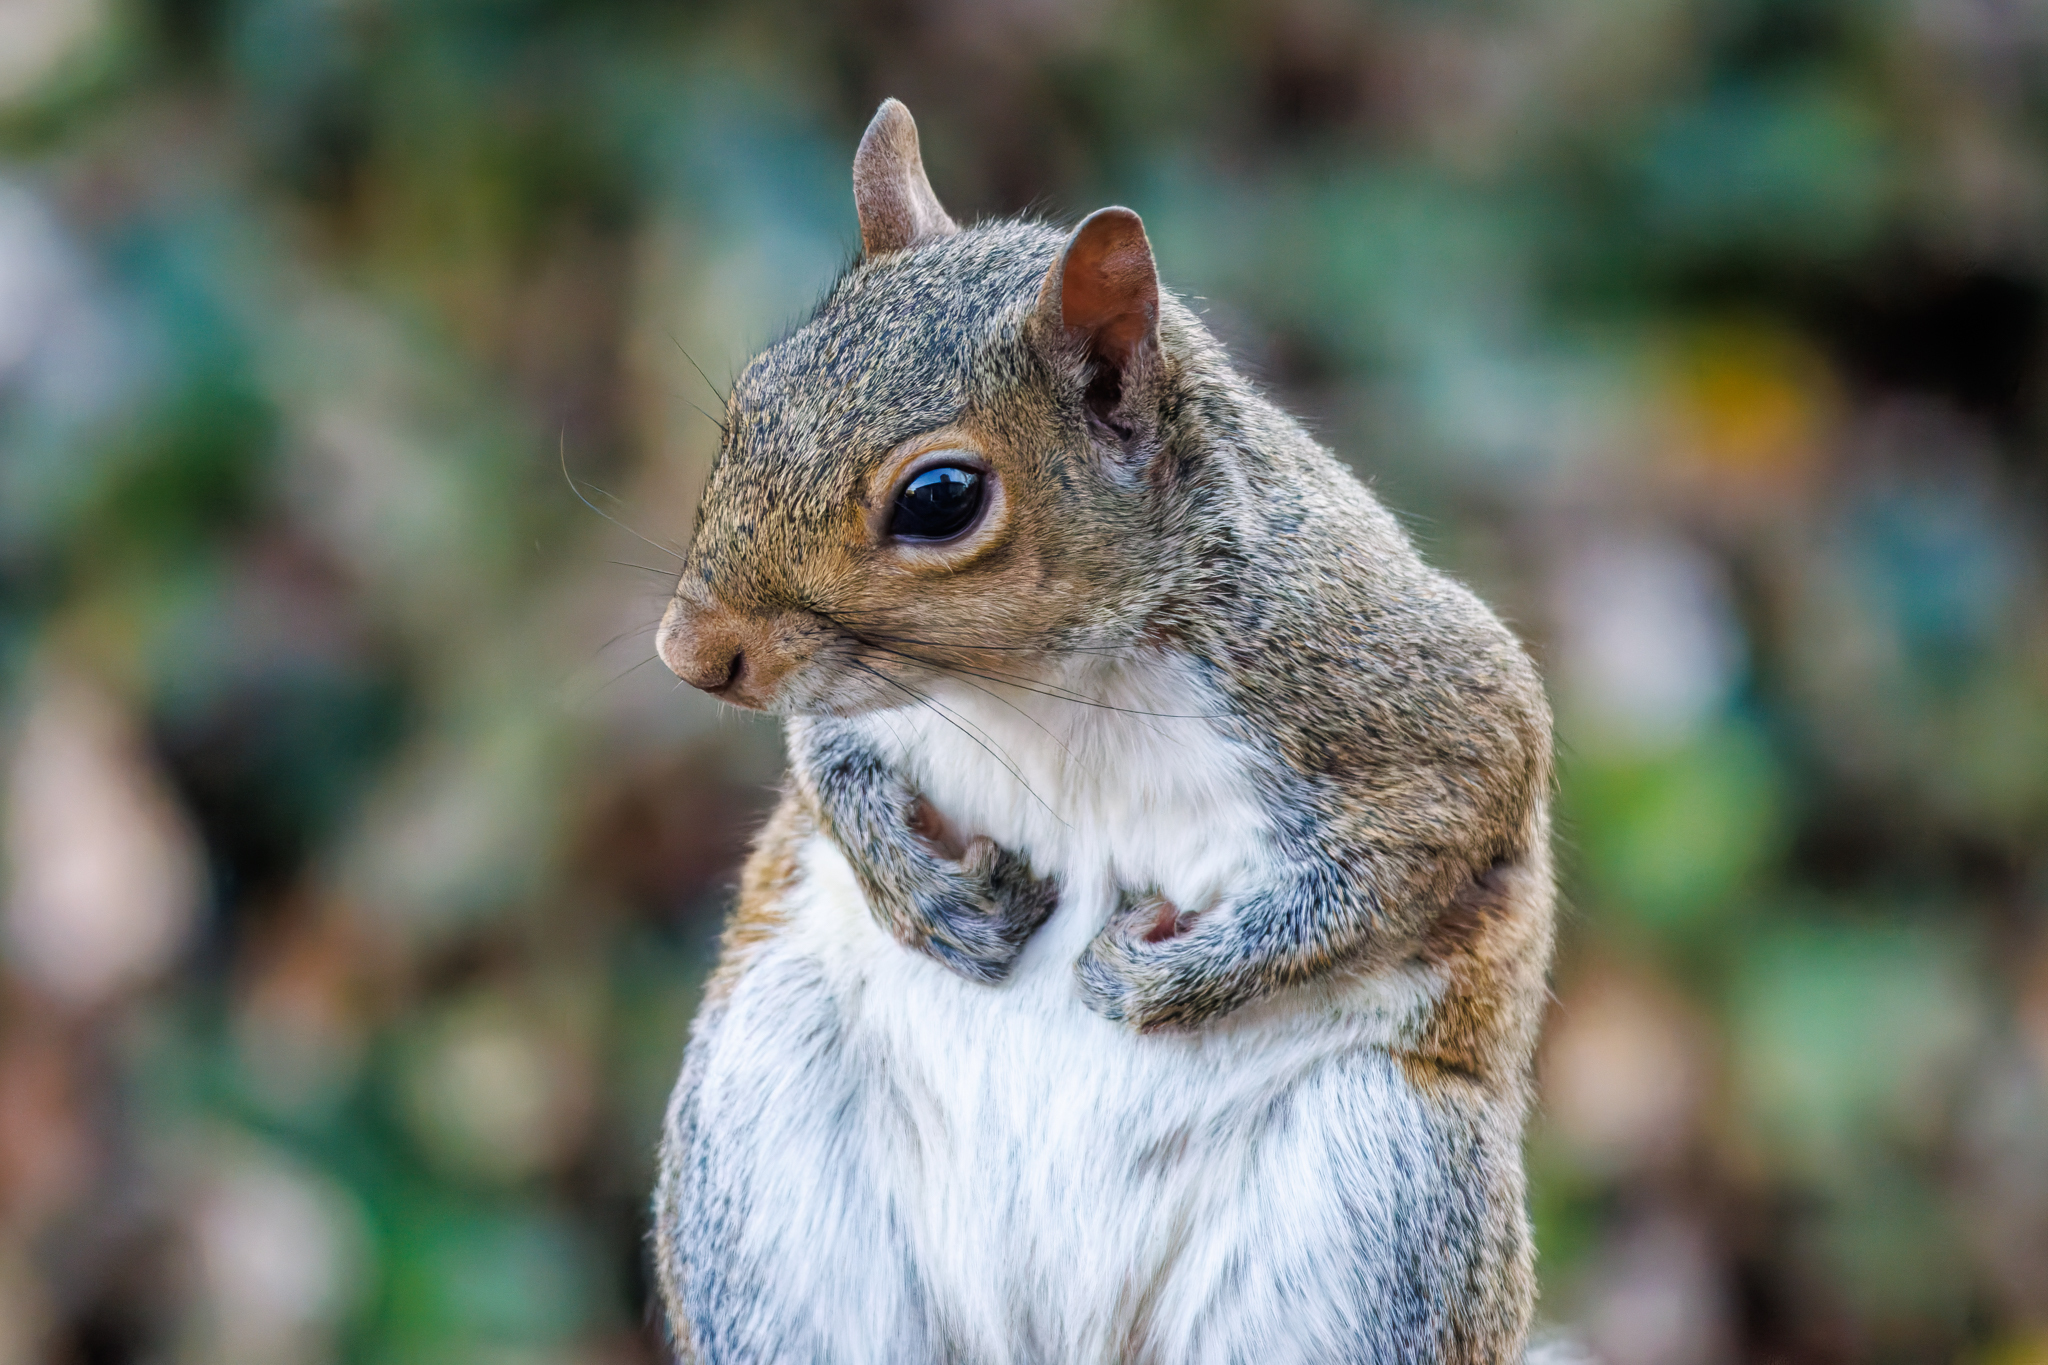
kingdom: Animalia
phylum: Chordata
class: Mammalia
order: Rodentia
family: Sciuridae
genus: Sciurus
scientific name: Sciurus carolinensis
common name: Eastern gray squirrel
